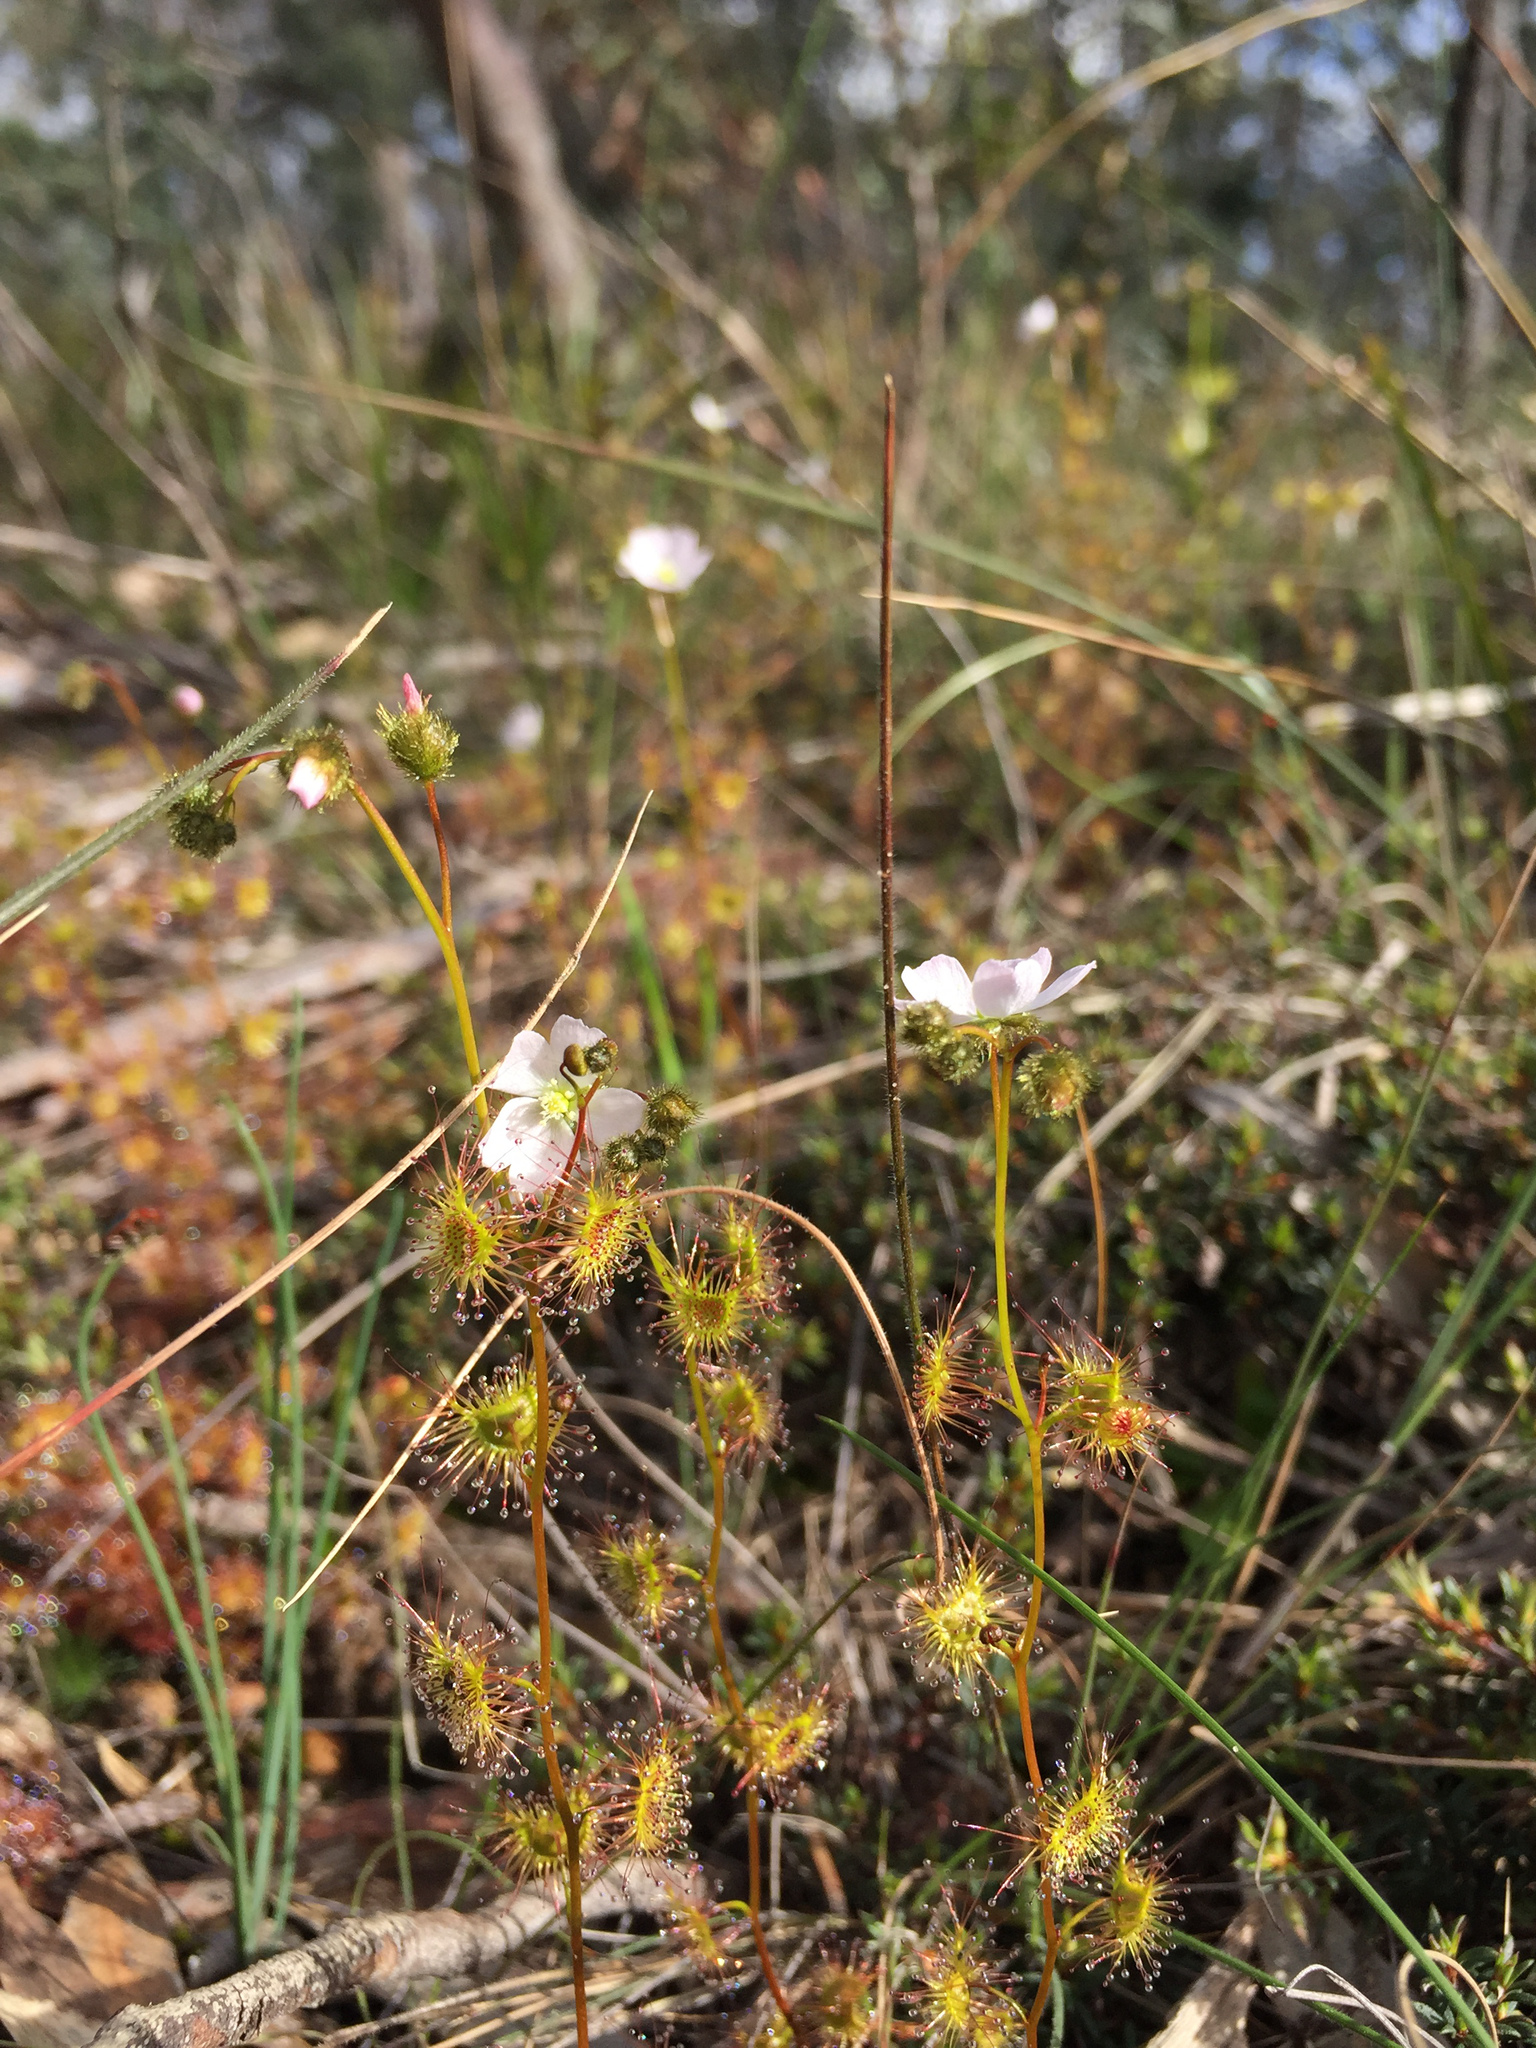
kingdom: Plantae
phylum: Tracheophyta
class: Magnoliopsida
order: Caryophyllales
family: Droseraceae
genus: Drosera
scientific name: Drosera gunniana
